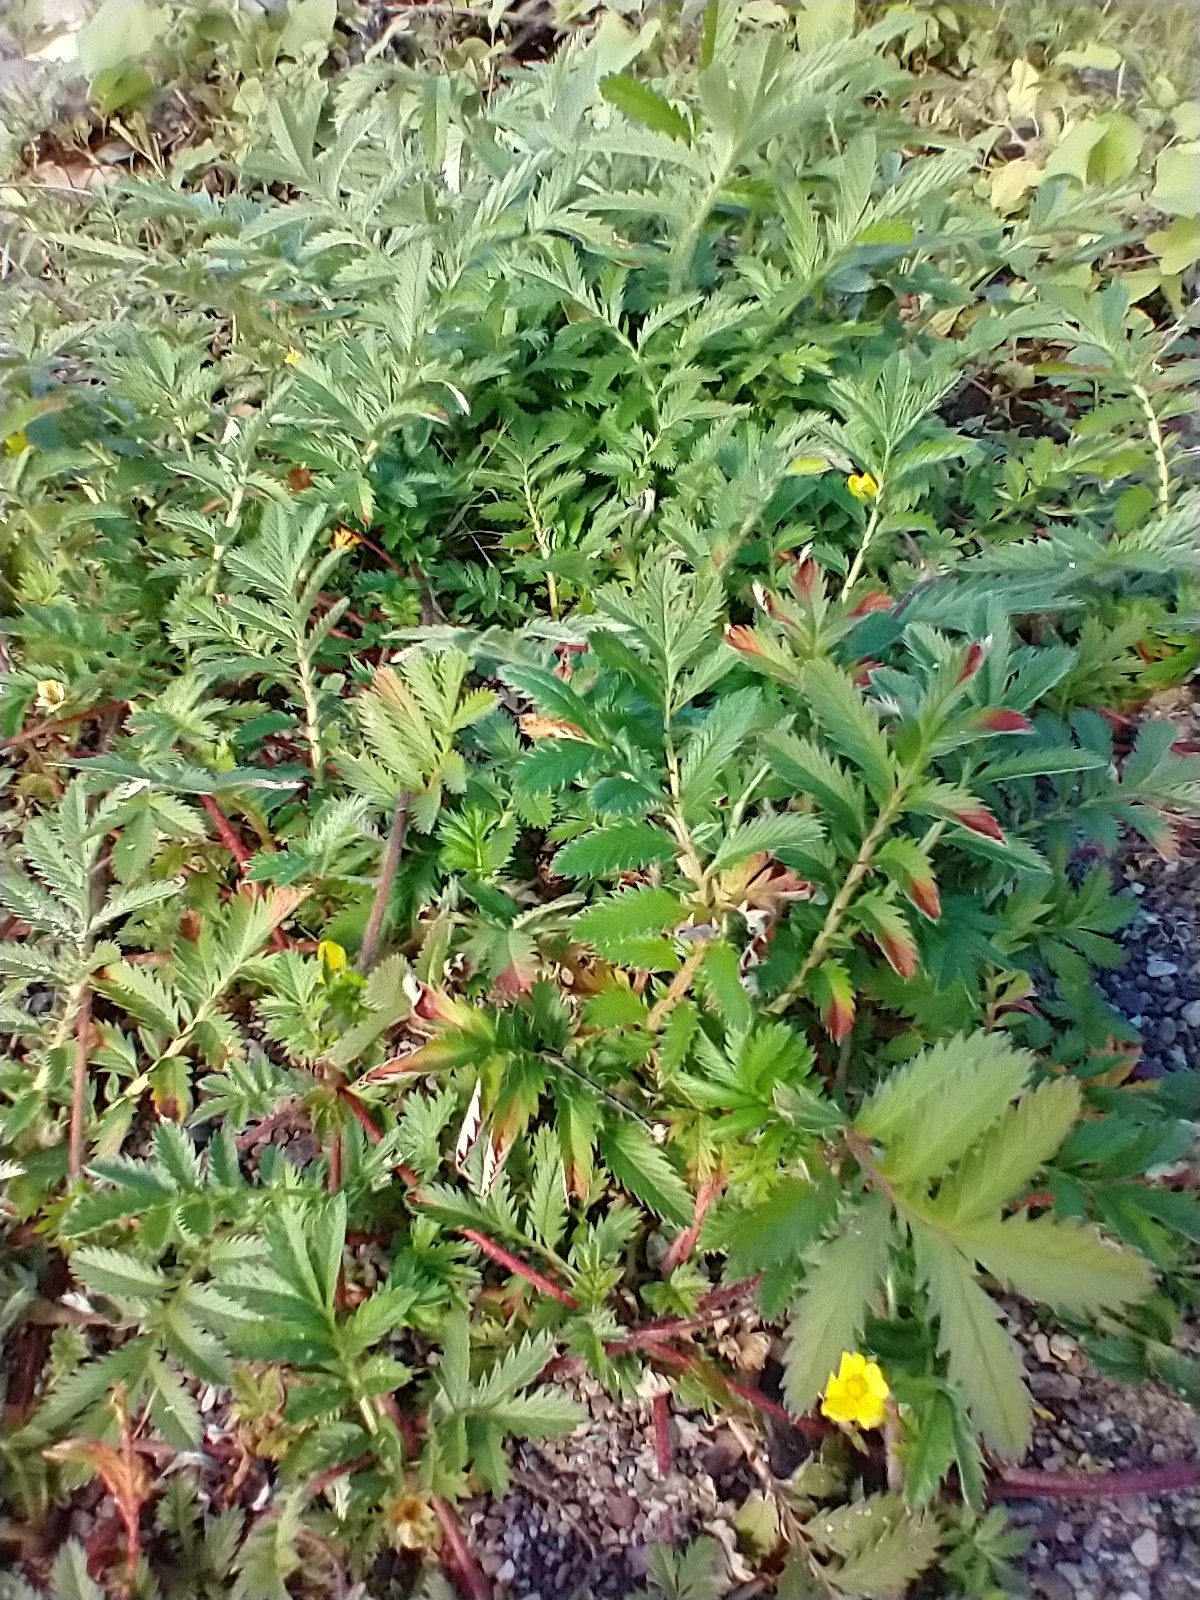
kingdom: Plantae
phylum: Tracheophyta
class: Magnoliopsida
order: Rosales
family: Rosaceae
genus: Argentina
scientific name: Argentina anserina
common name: Common silverweed
